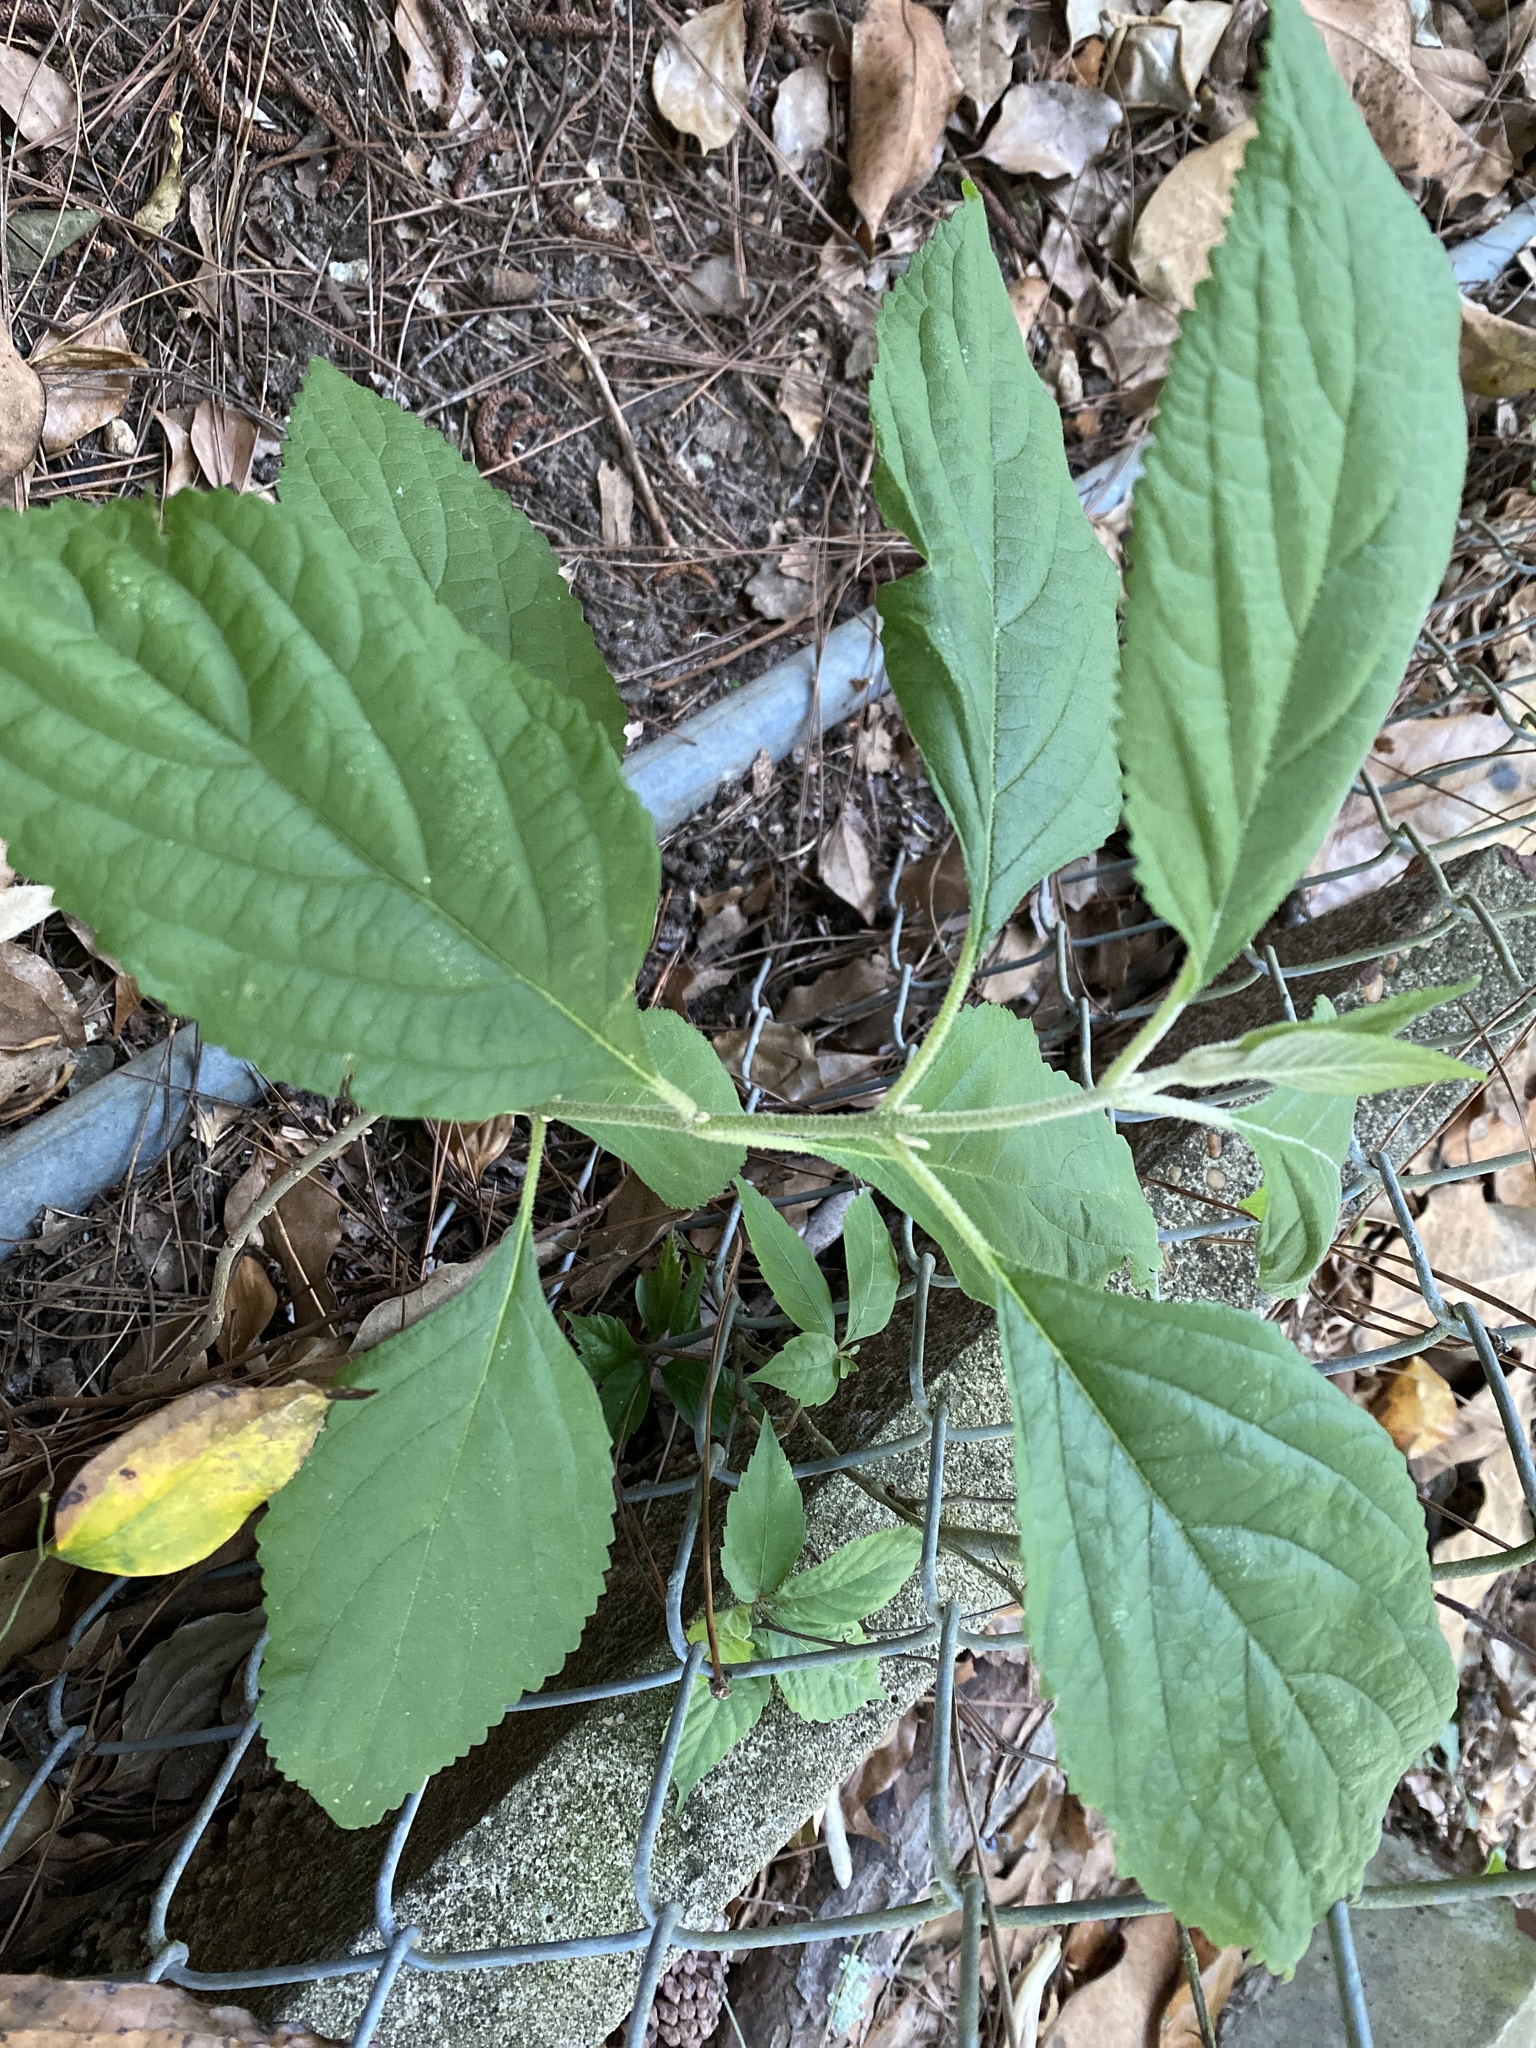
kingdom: Plantae
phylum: Tracheophyta
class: Magnoliopsida
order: Lamiales
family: Lamiaceae
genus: Callicarpa
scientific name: Callicarpa americana
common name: American beautyberry
